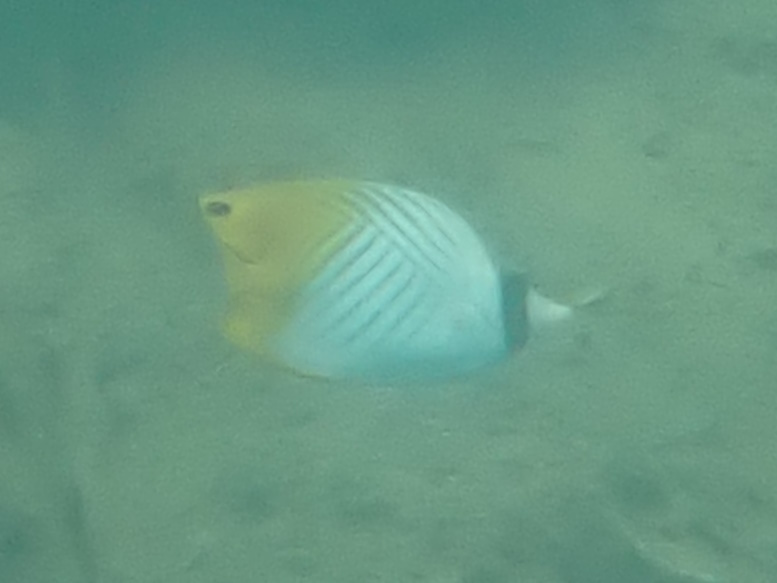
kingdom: Animalia
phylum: Chordata
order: Perciformes
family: Chaetodontidae
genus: Chaetodon
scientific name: Chaetodon auriga
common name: Threadfin butterflyfish
